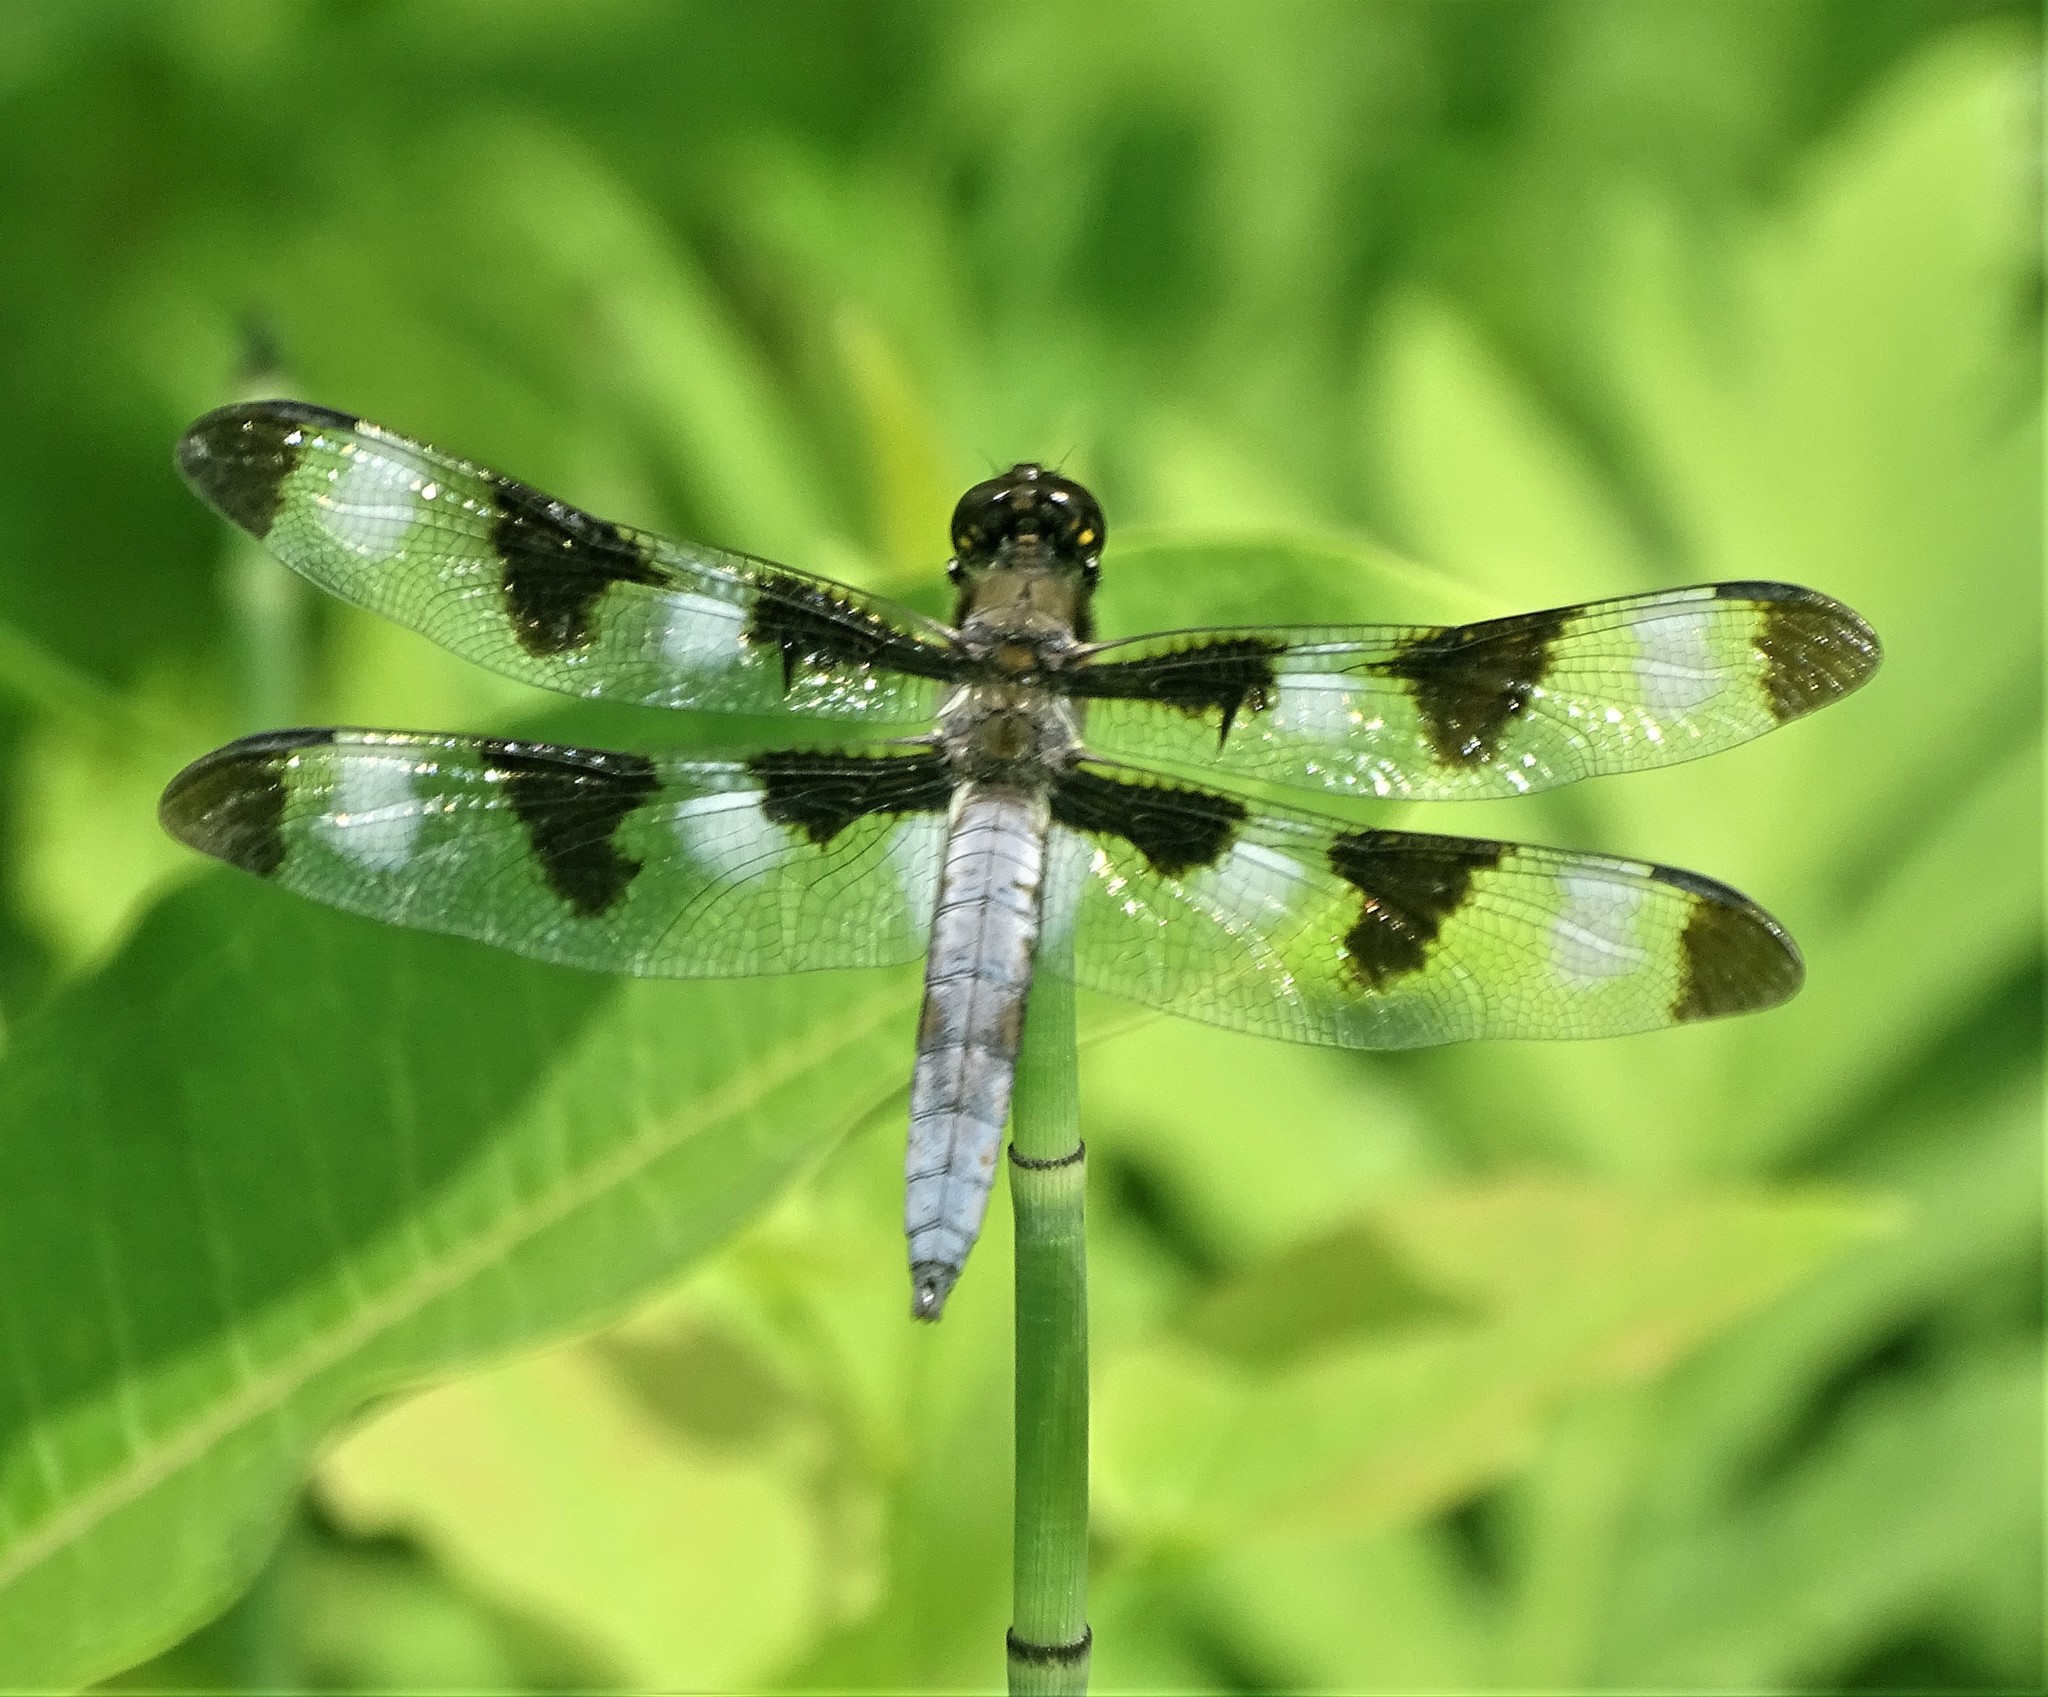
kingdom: Animalia
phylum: Arthropoda
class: Insecta
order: Odonata
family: Libellulidae
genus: Libellula
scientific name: Libellula pulchella
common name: Twelve-spotted skimmer
